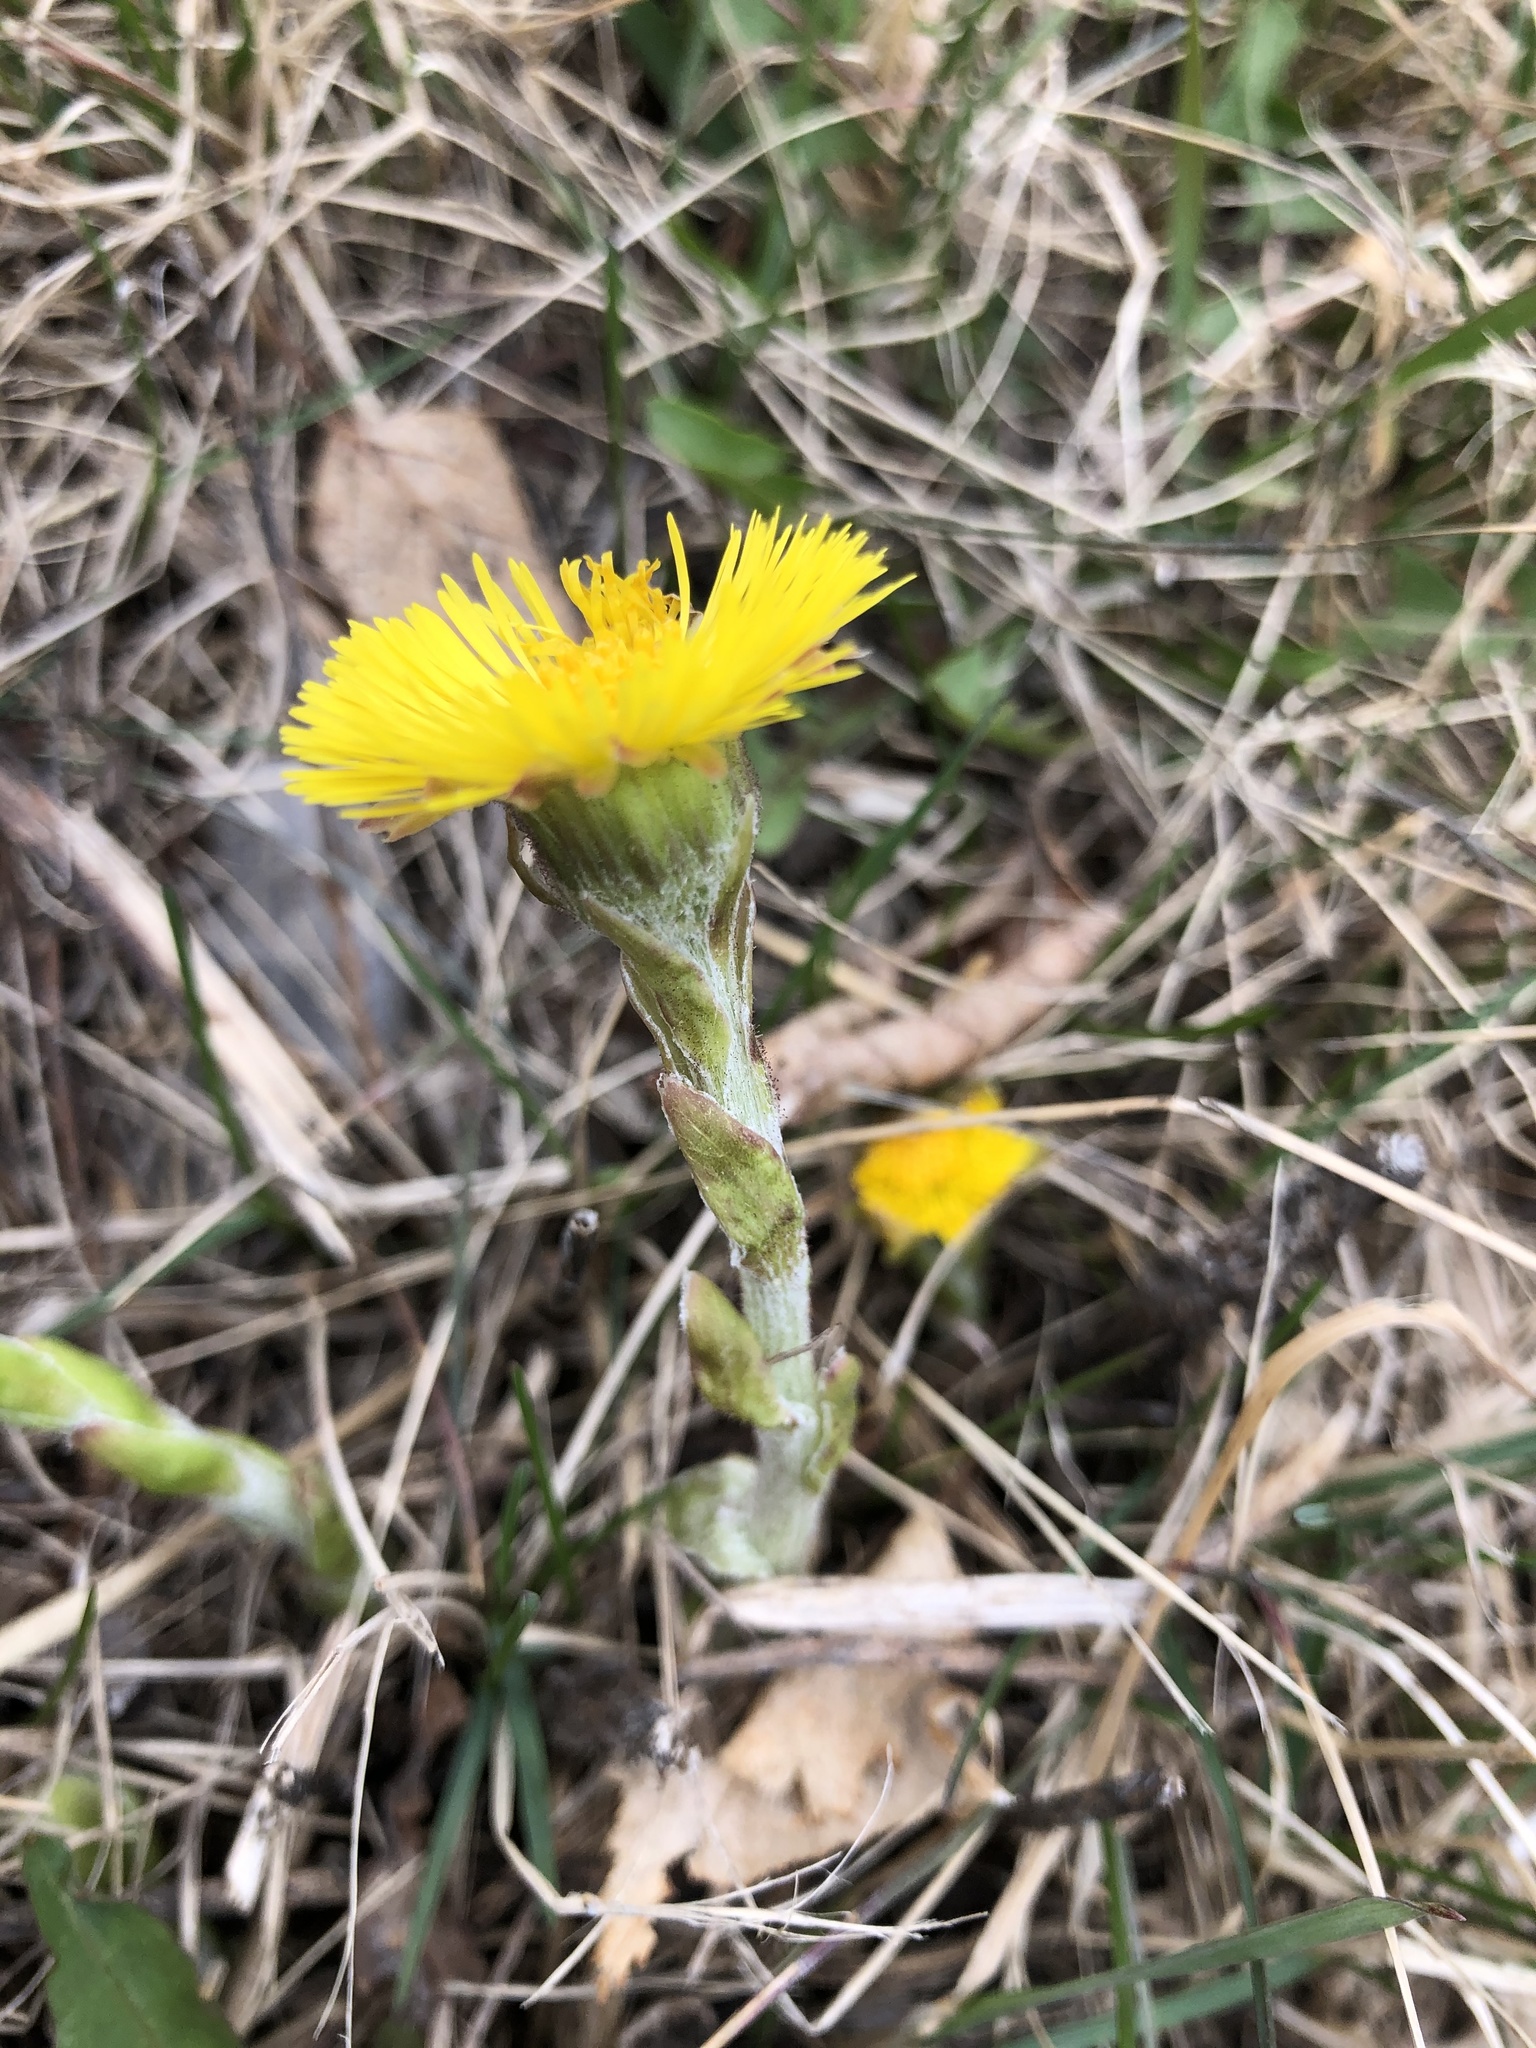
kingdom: Plantae
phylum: Tracheophyta
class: Magnoliopsida
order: Asterales
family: Asteraceae
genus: Tussilago
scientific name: Tussilago farfara
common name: Coltsfoot
